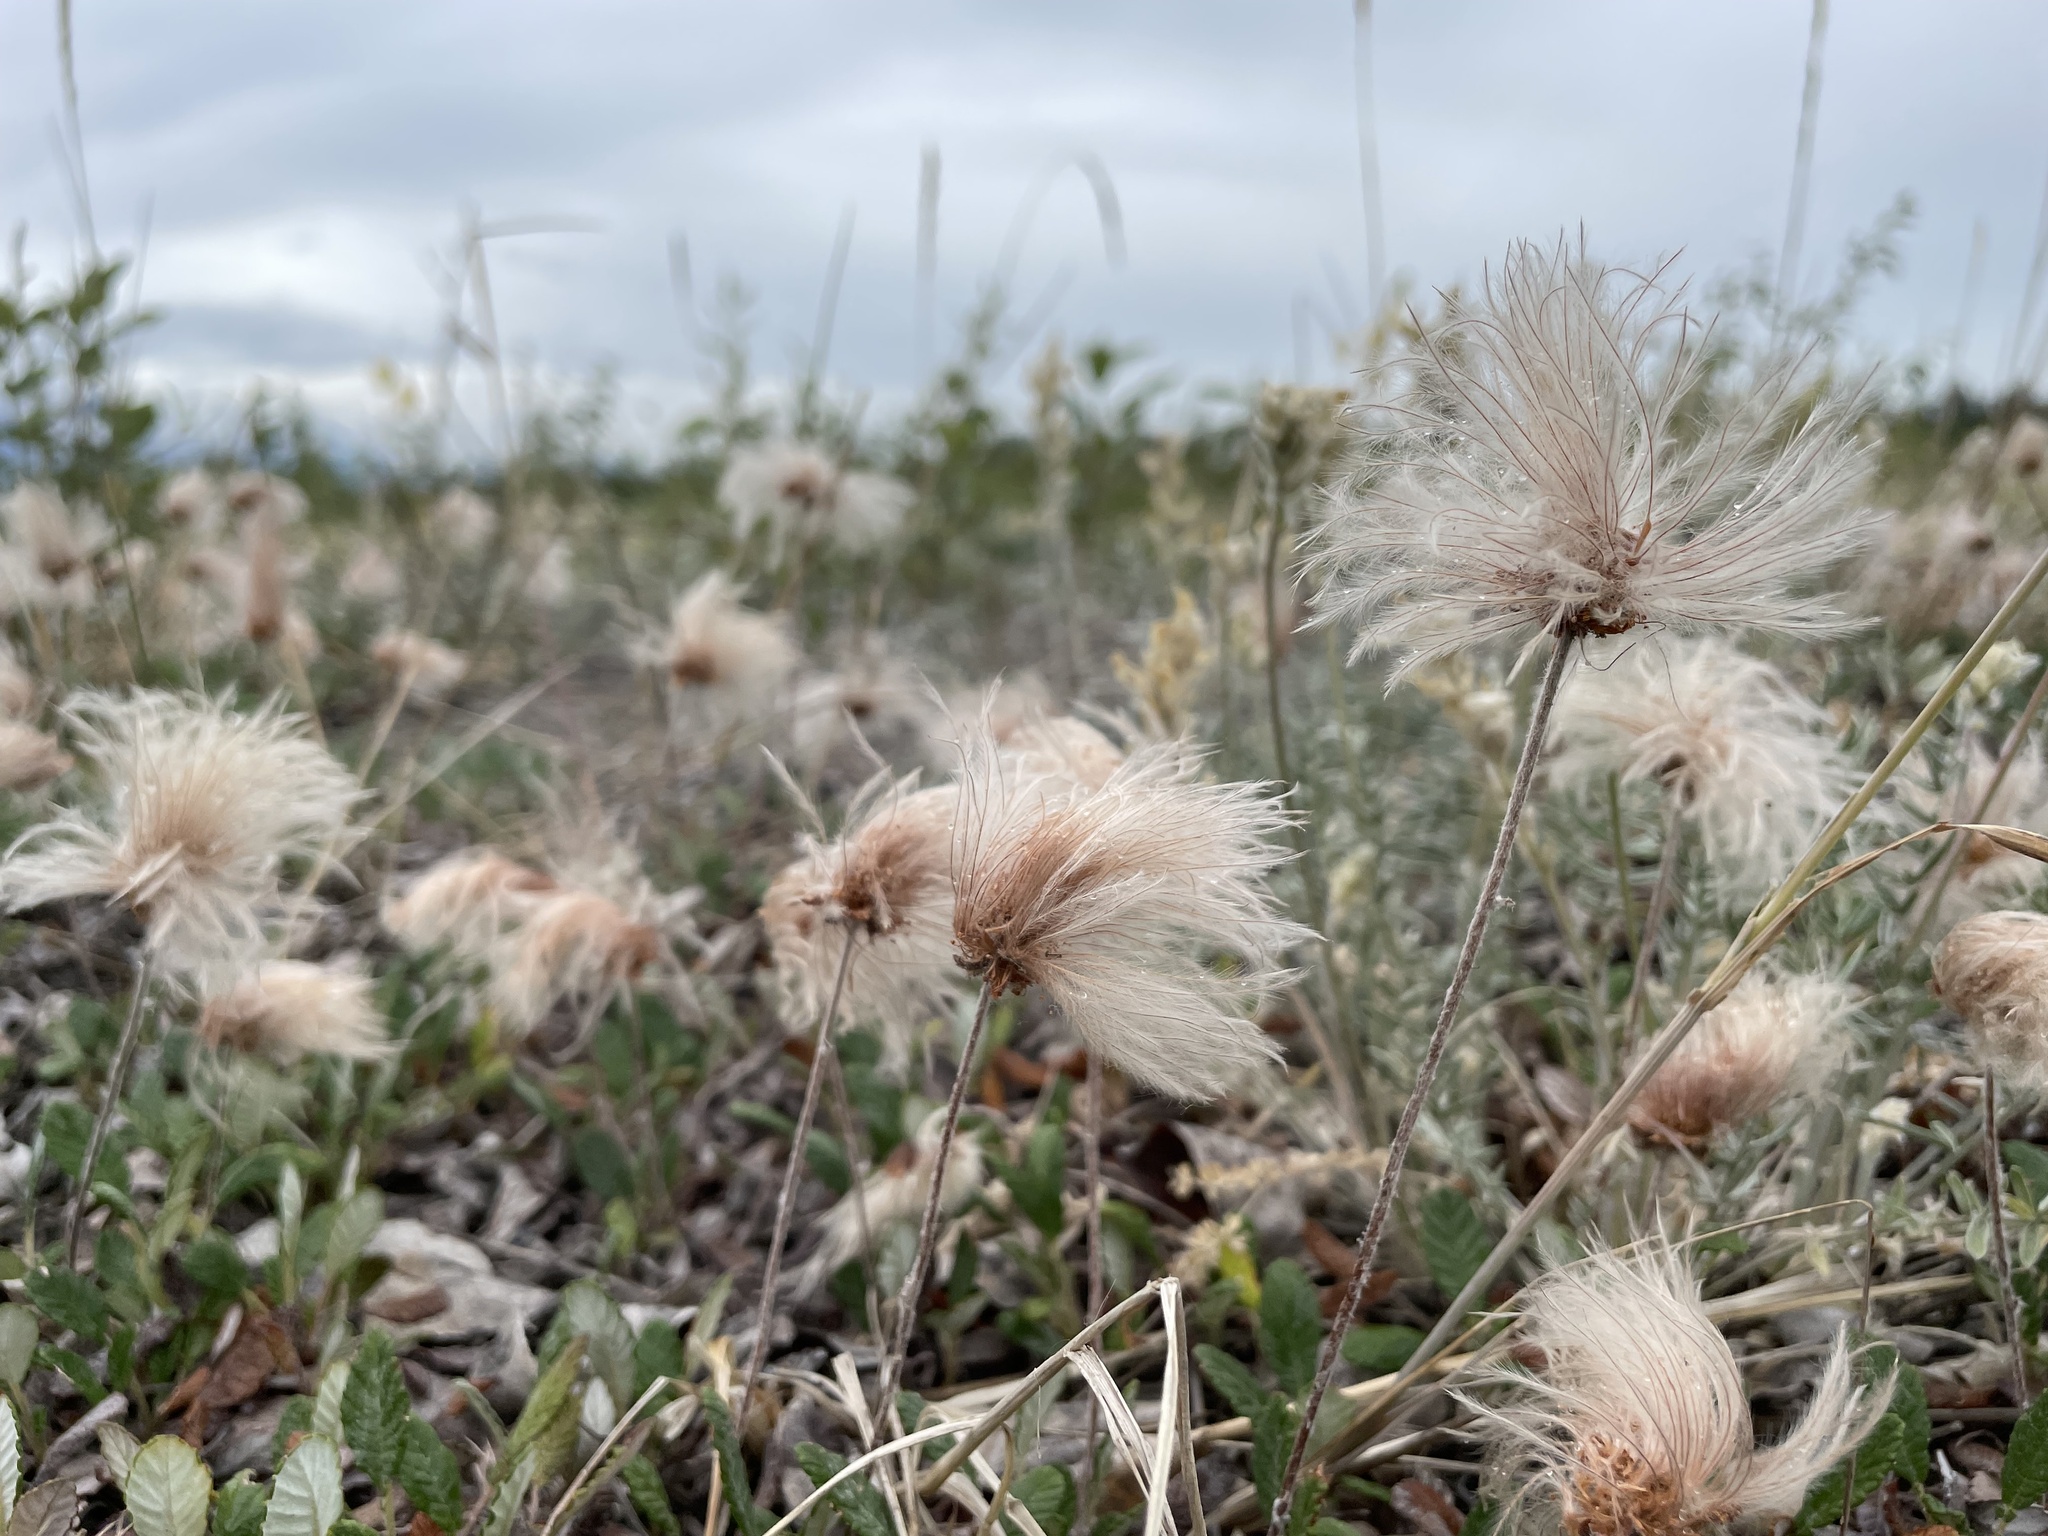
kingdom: Plantae
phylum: Tracheophyta
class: Magnoliopsida
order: Rosales
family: Rosaceae
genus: Dryas
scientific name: Dryas drummondii
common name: Drummond's dryad
